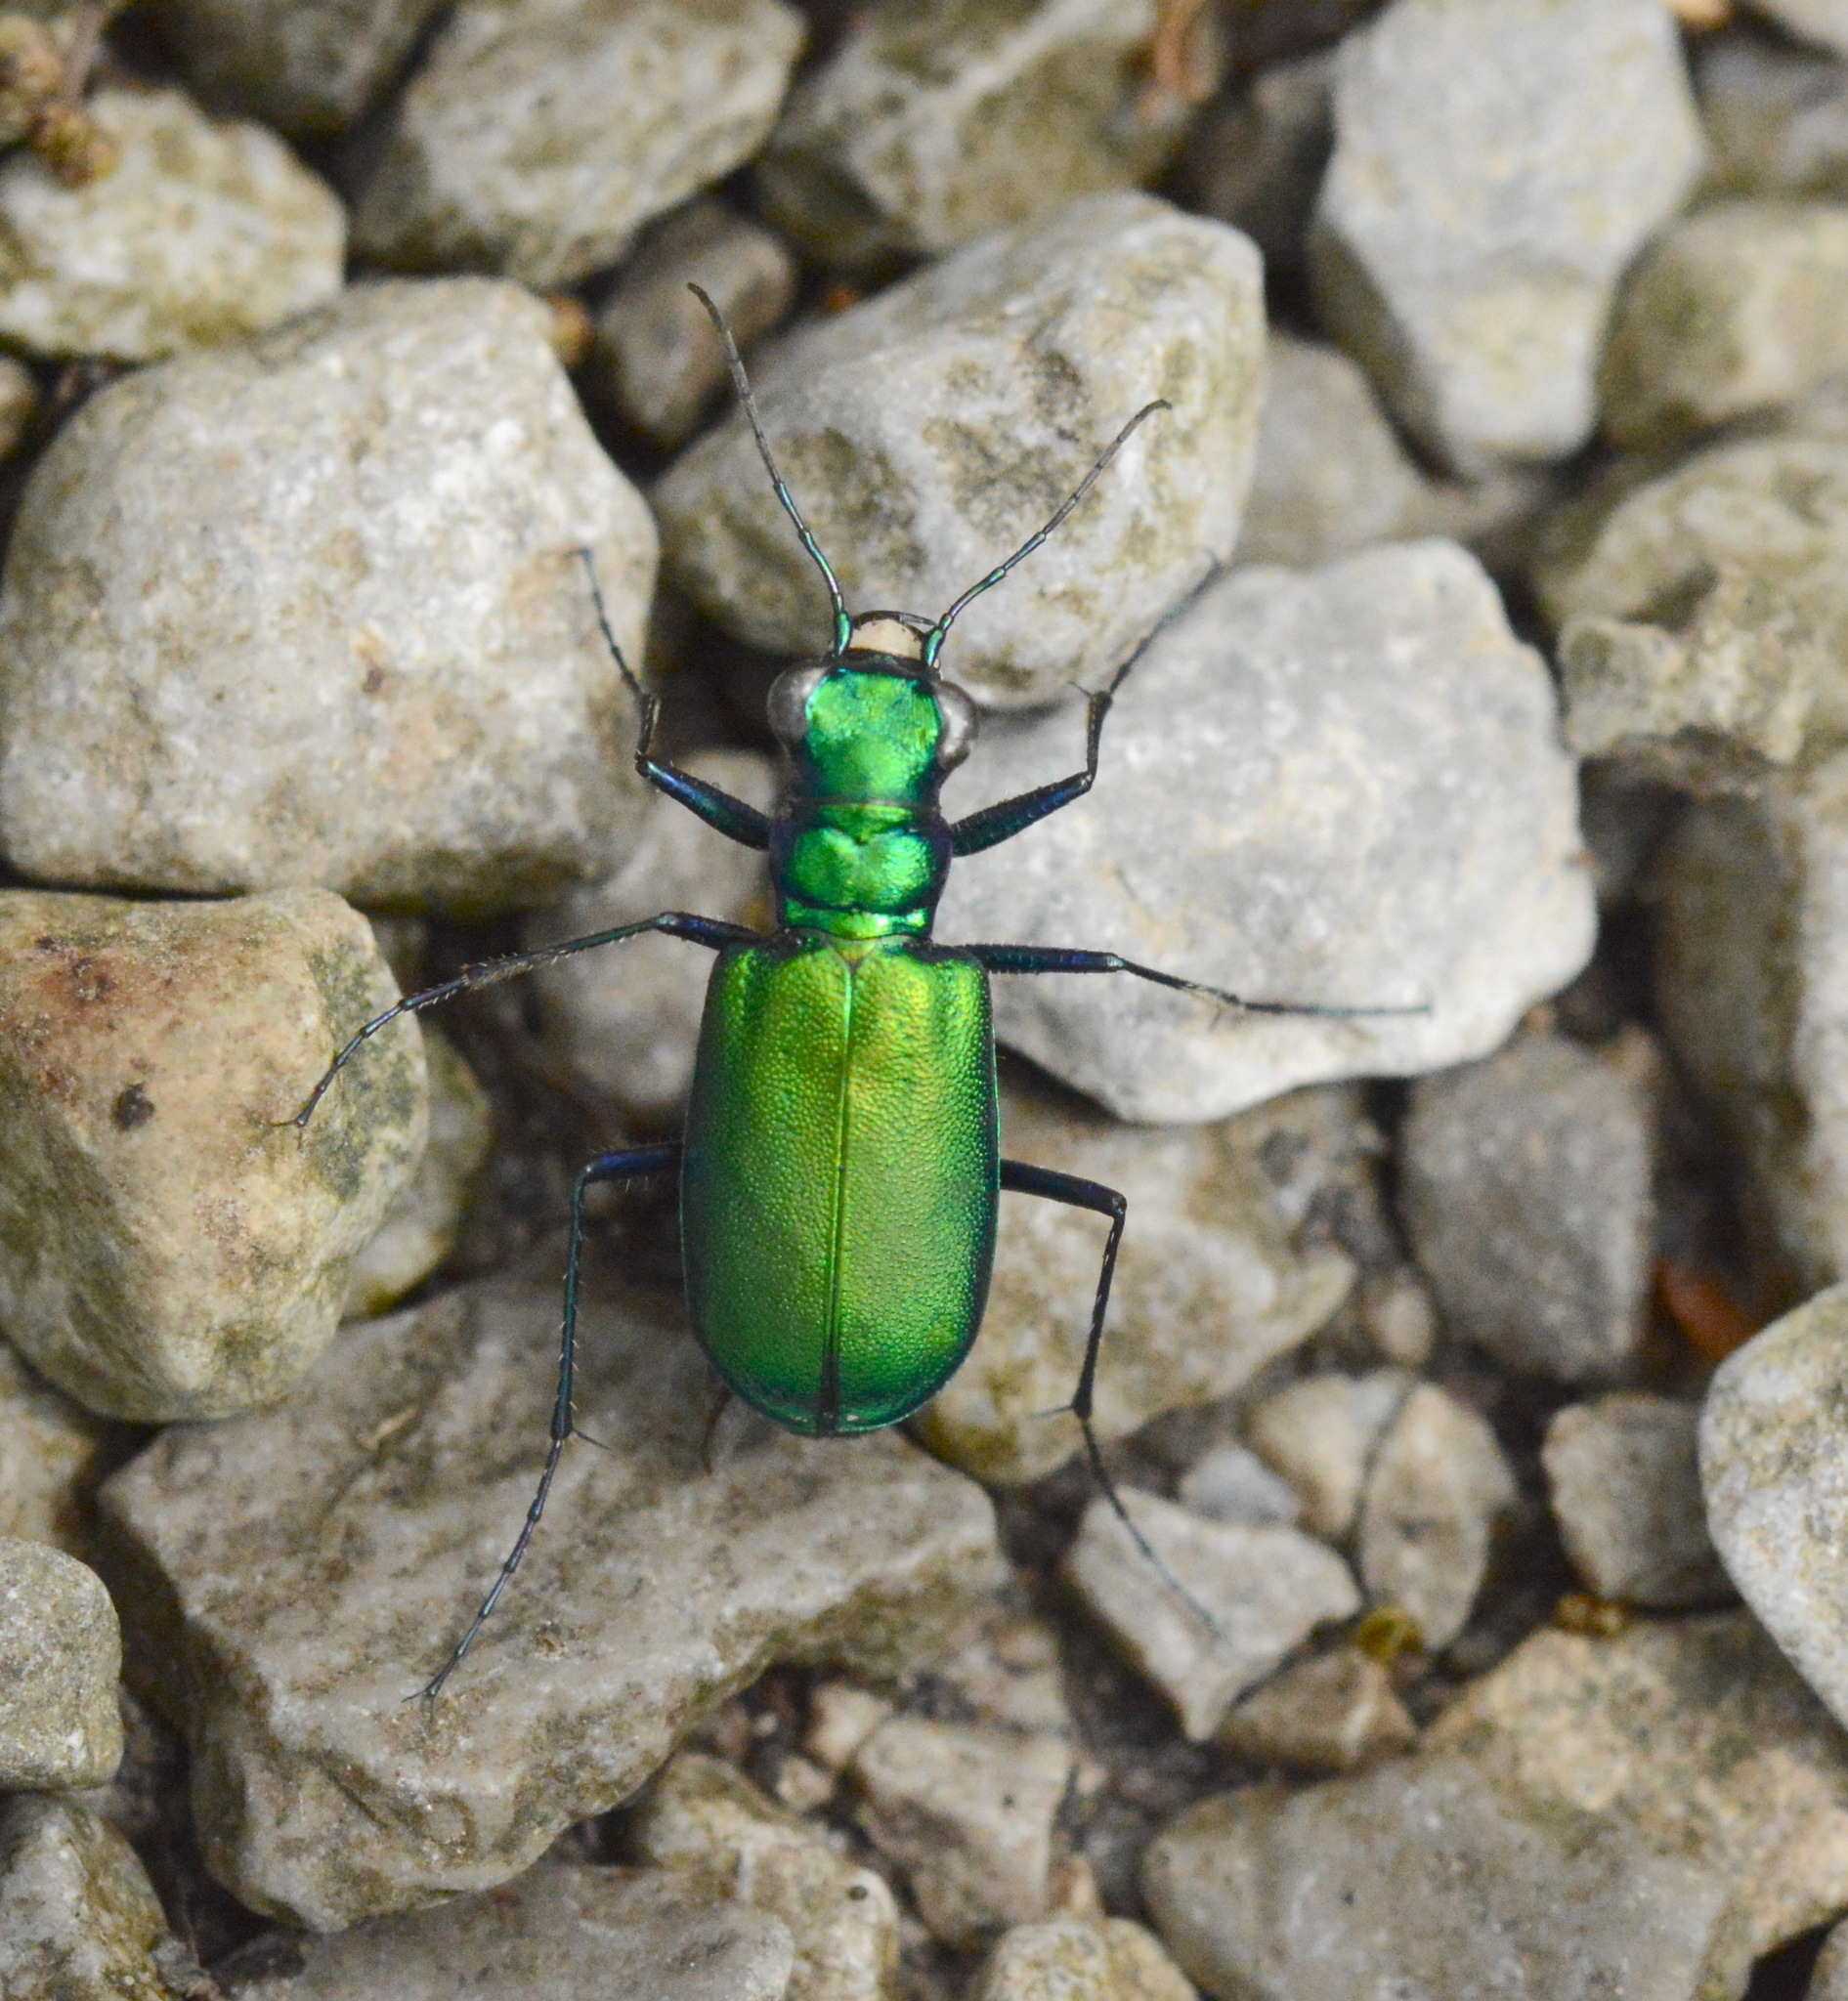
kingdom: Animalia
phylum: Arthropoda
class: Insecta
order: Coleoptera
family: Carabidae
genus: Cicindela
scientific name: Cicindela sexguttata
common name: Six-spotted tiger beetle
